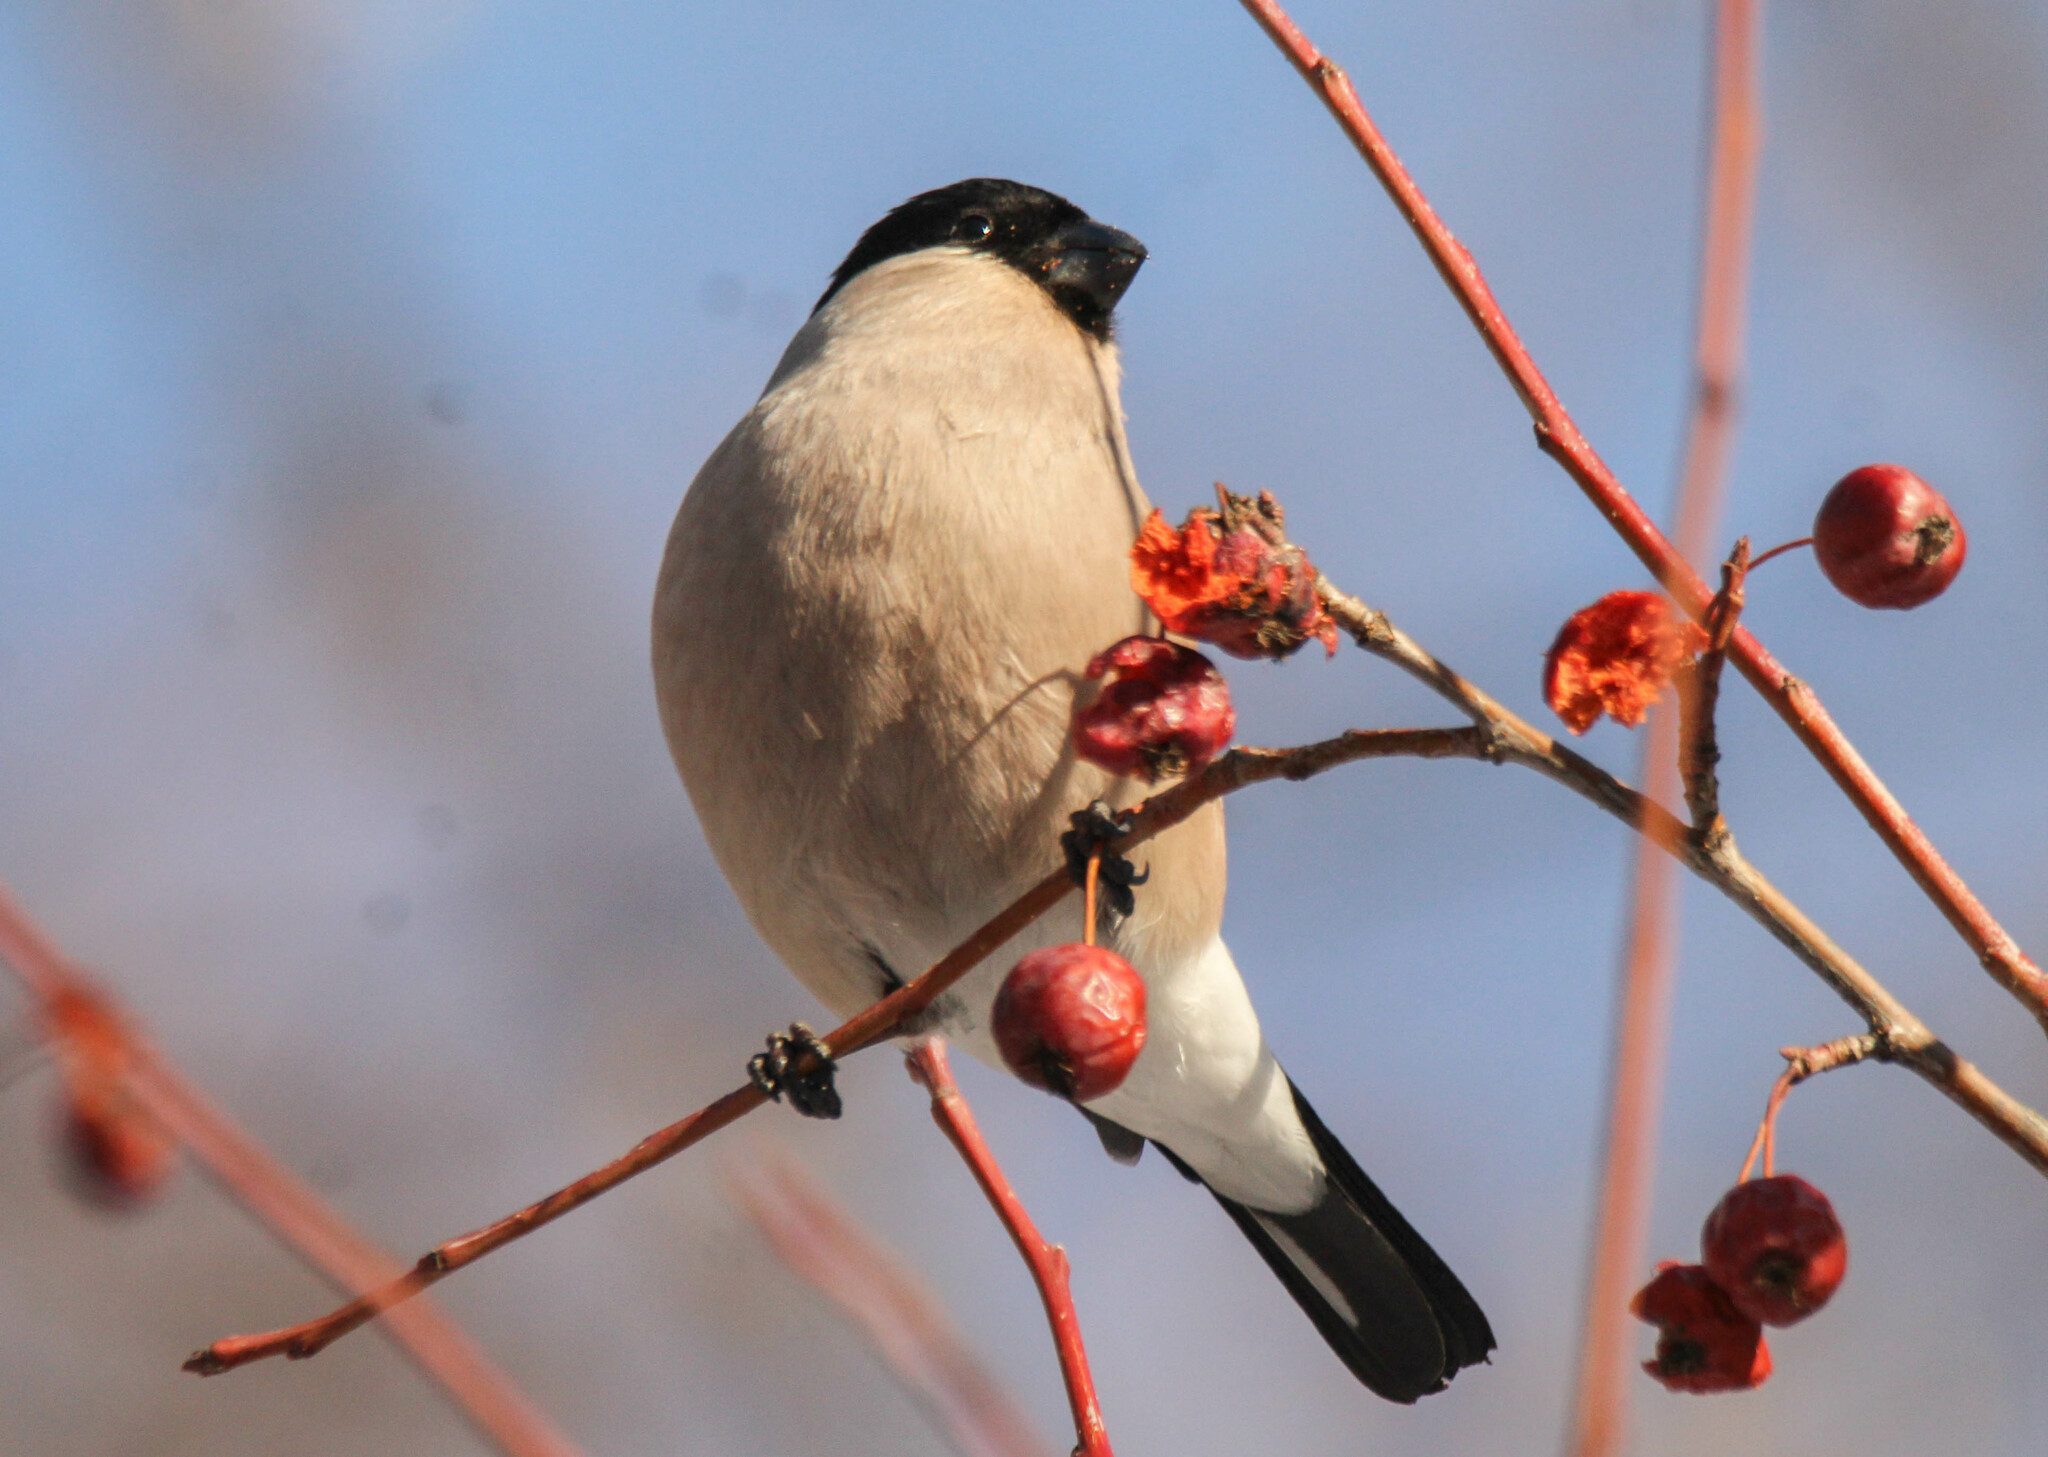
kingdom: Animalia
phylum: Chordata
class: Aves
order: Passeriformes
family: Fringillidae
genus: Pyrrhula
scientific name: Pyrrhula pyrrhula
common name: Eurasian bullfinch
